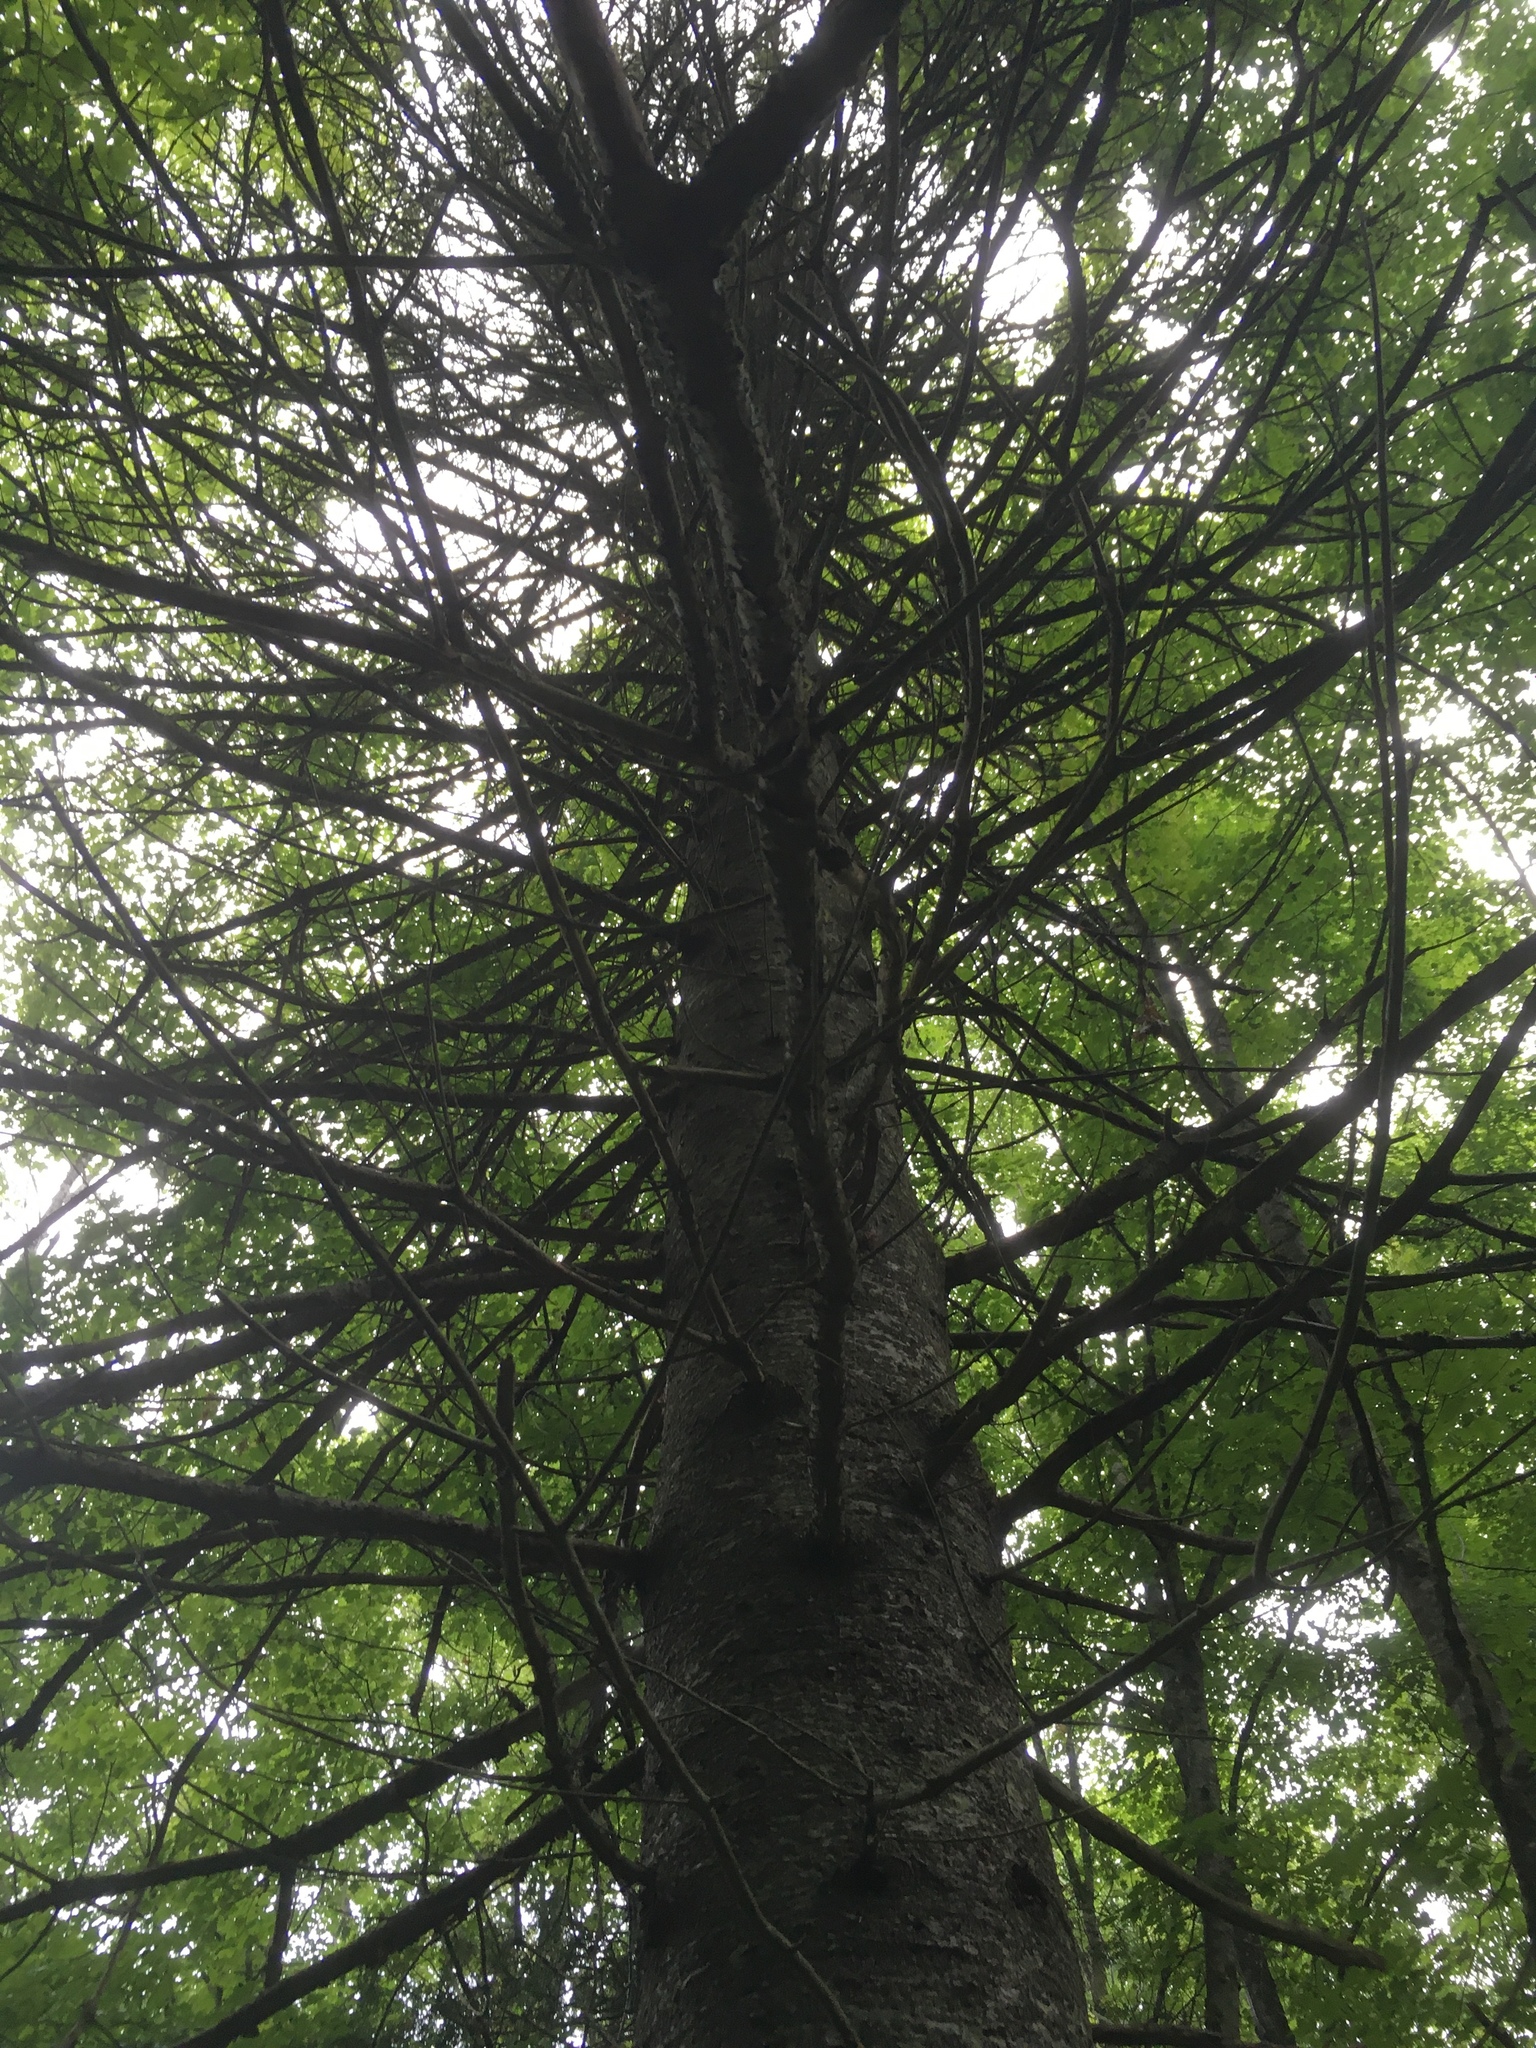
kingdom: Plantae
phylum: Tracheophyta
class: Pinopsida
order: Pinales
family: Pinaceae
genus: Abies
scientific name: Abies balsamea
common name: Balsam fir
